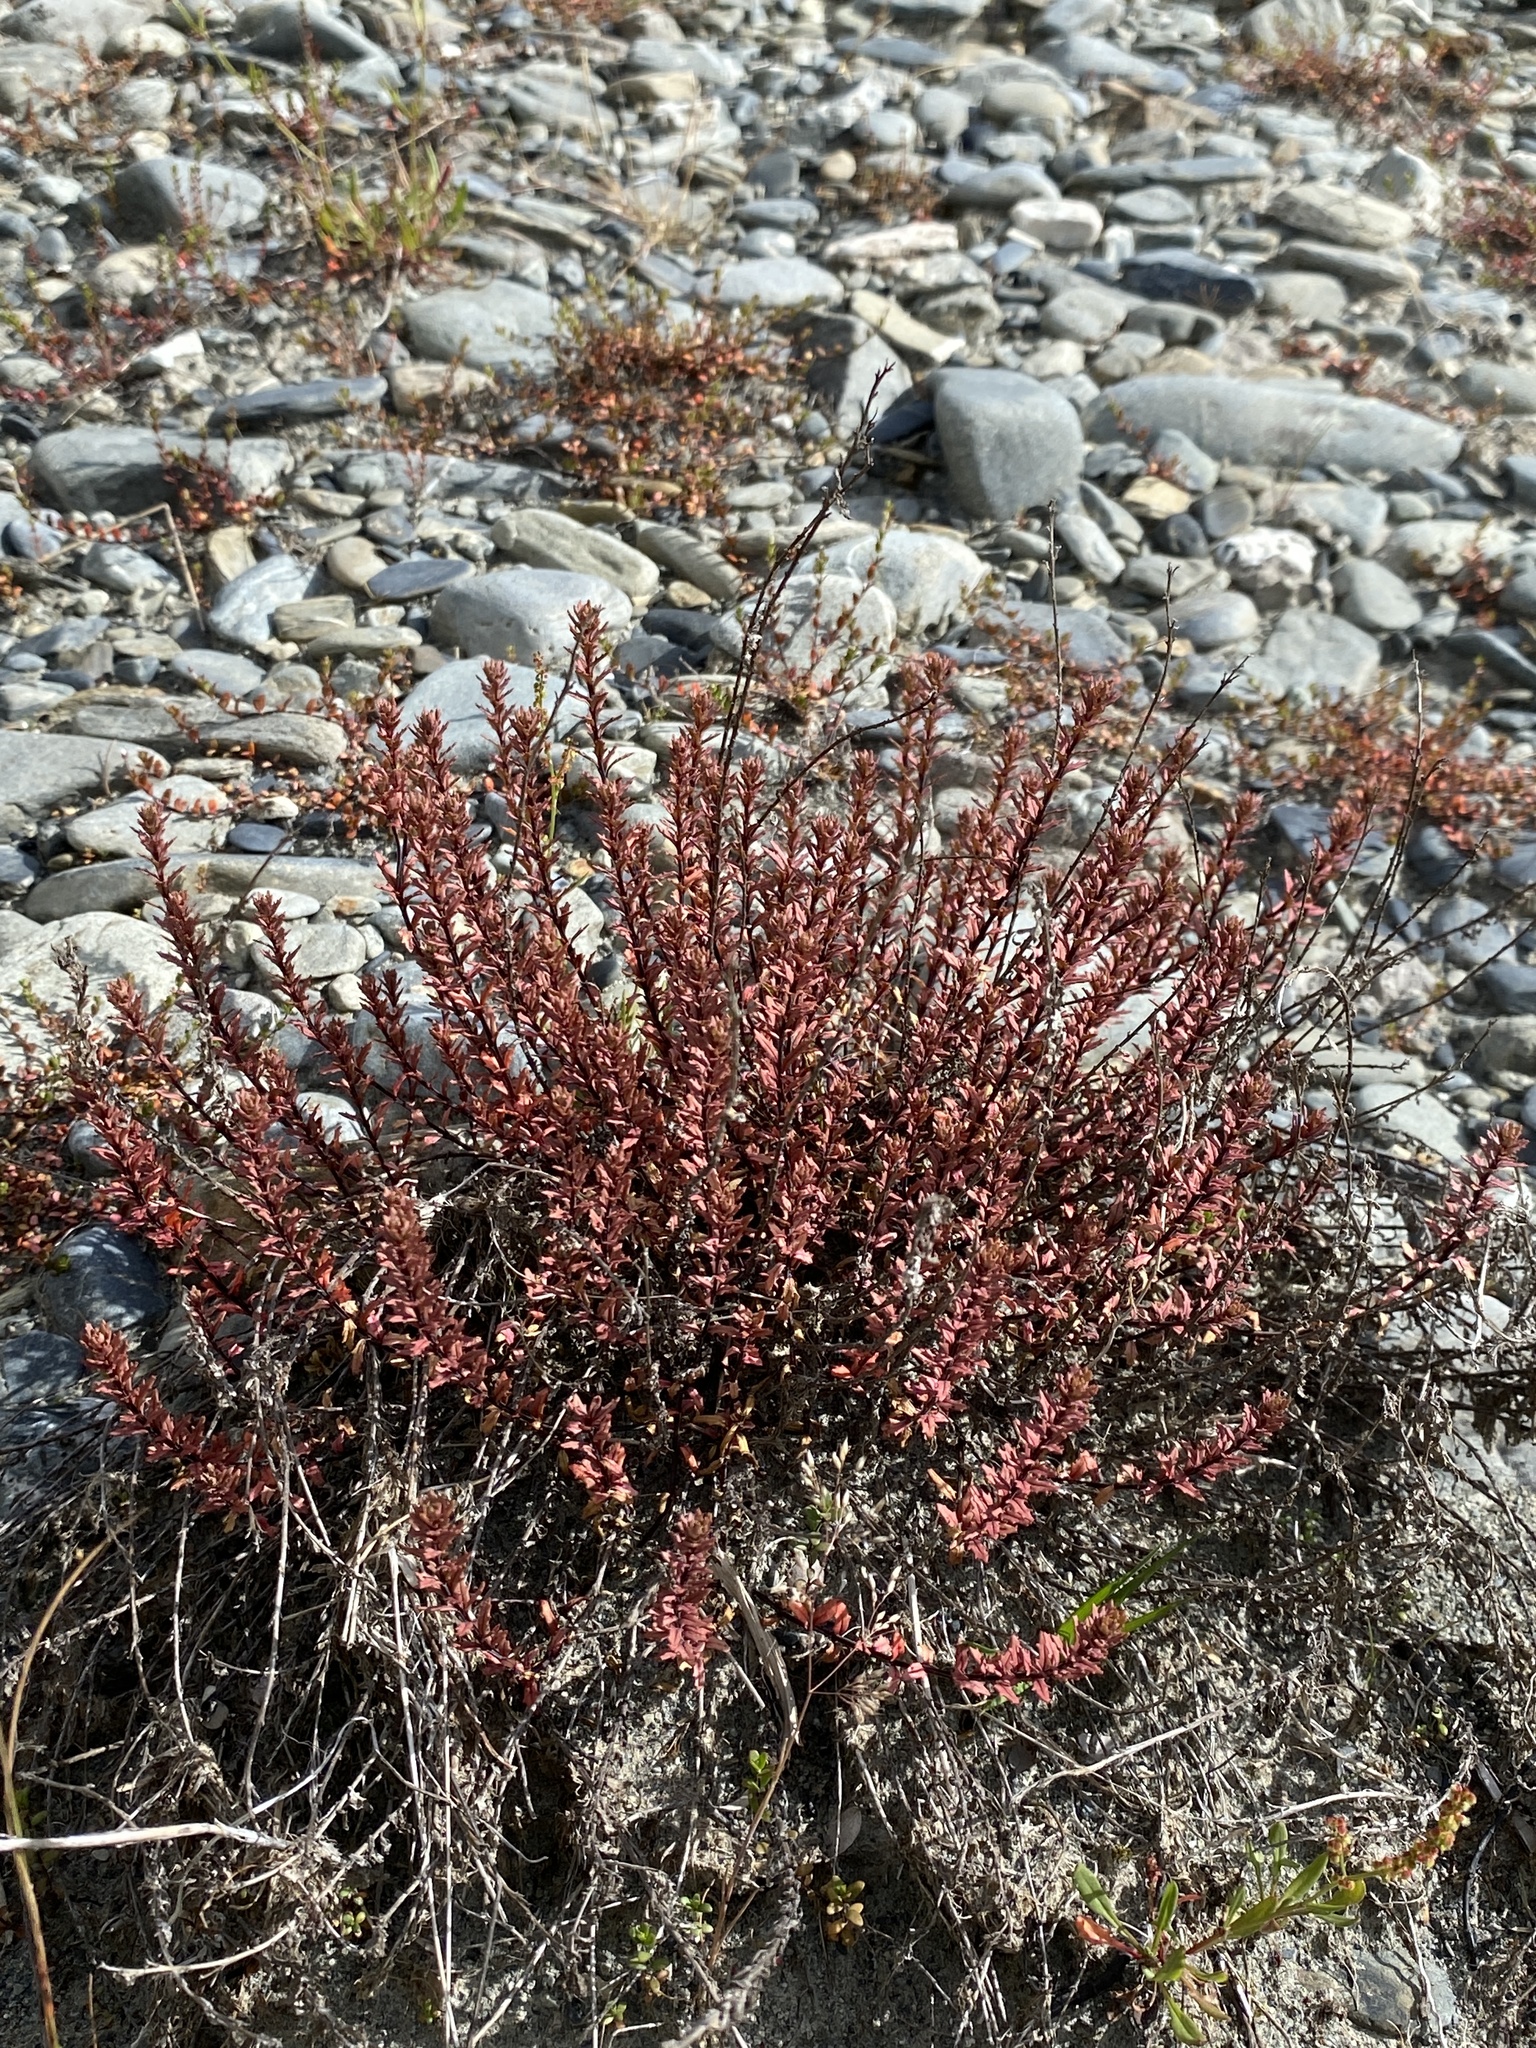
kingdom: Plantae
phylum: Tracheophyta
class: Magnoliopsida
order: Myrtales
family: Onagraceae
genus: Epilobium
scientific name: Epilobium melanocaulon
